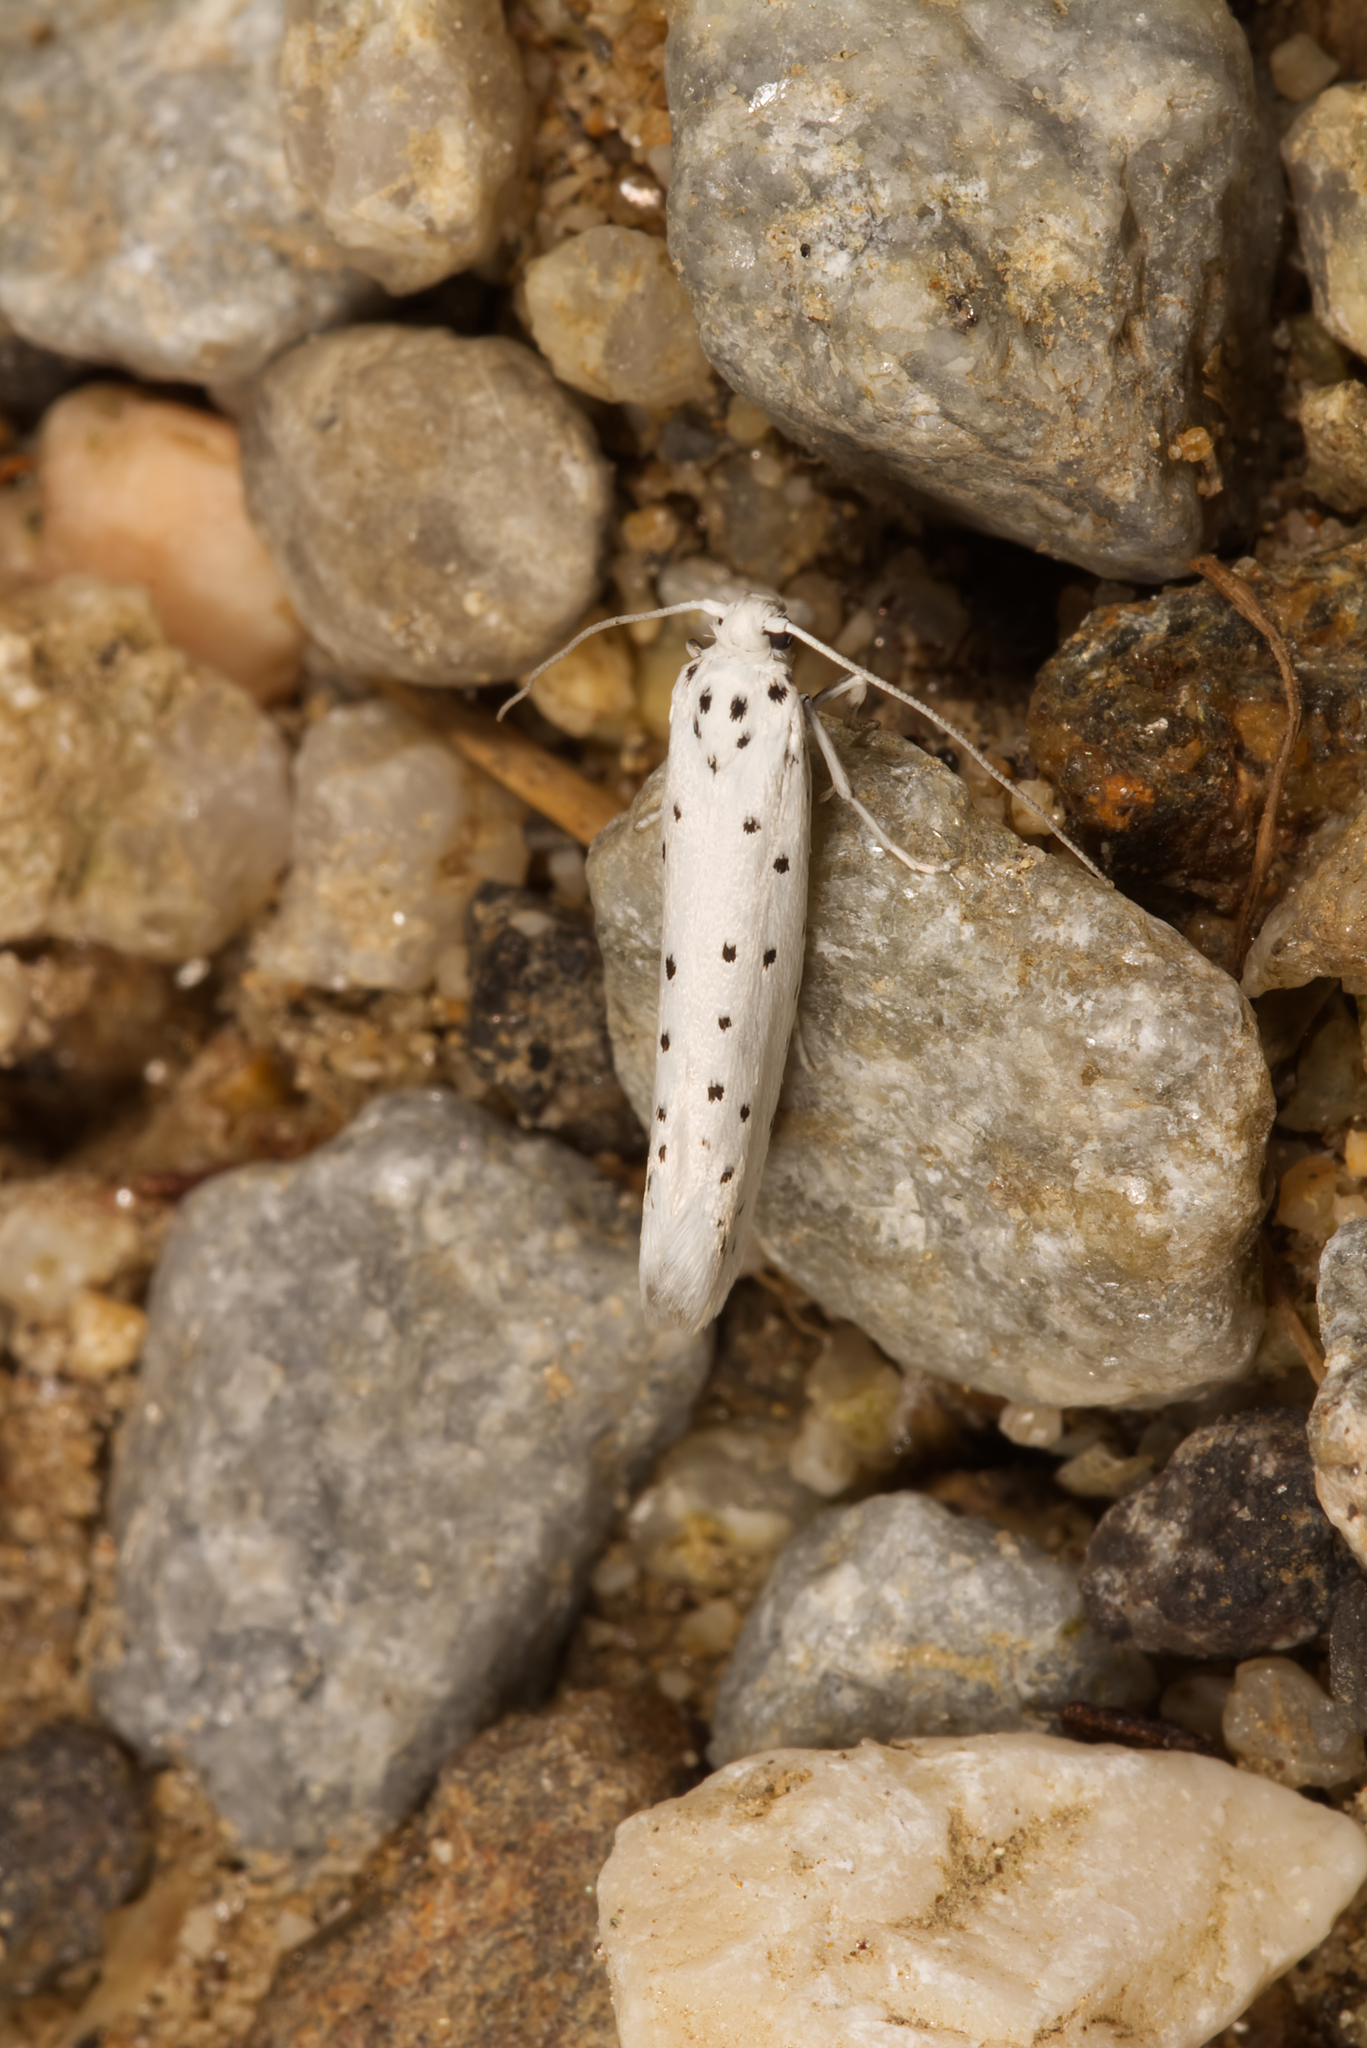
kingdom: Animalia
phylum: Arthropoda
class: Insecta
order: Lepidoptera
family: Yponomeutidae
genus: Yponomeuta
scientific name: Yponomeuta
